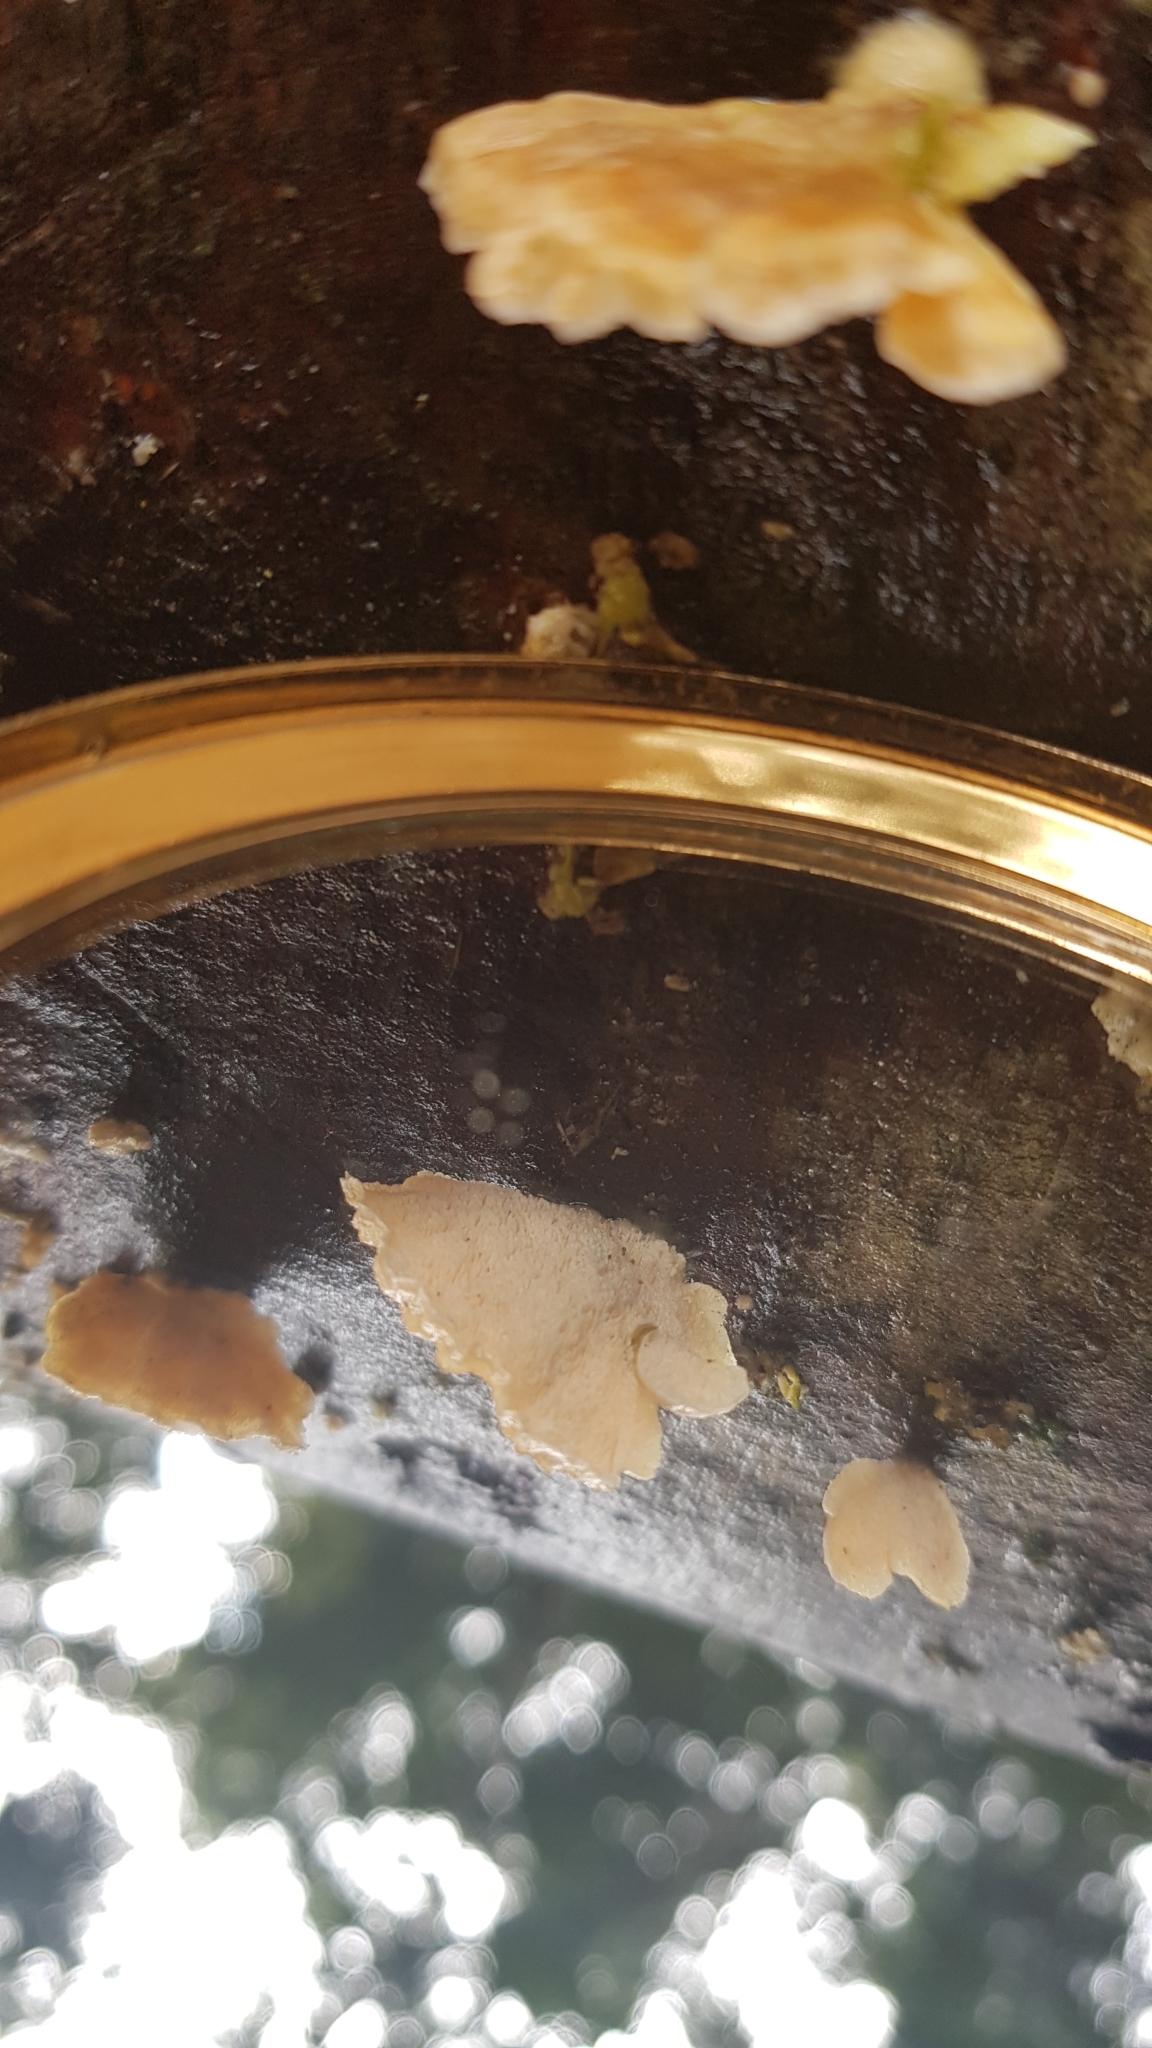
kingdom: Fungi
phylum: Basidiomycota
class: Agaricomycetes
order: Hymenochaetales
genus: Trichaptum
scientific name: Trichaptum biforme
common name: Violet-toothed polypore
